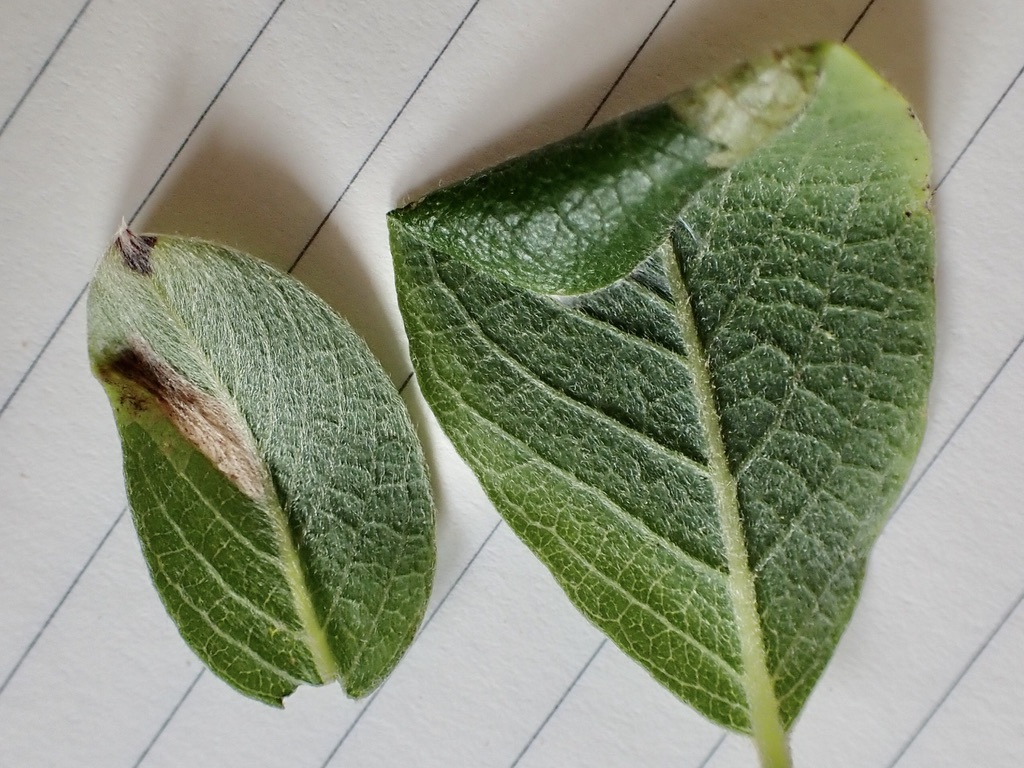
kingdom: Animalia
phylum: Arthropoda
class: Insecta
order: Lepidoptera
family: Gracillariidae
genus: Caloptilia
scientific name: Caloptilia stigmatella
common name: White-triangle slender
